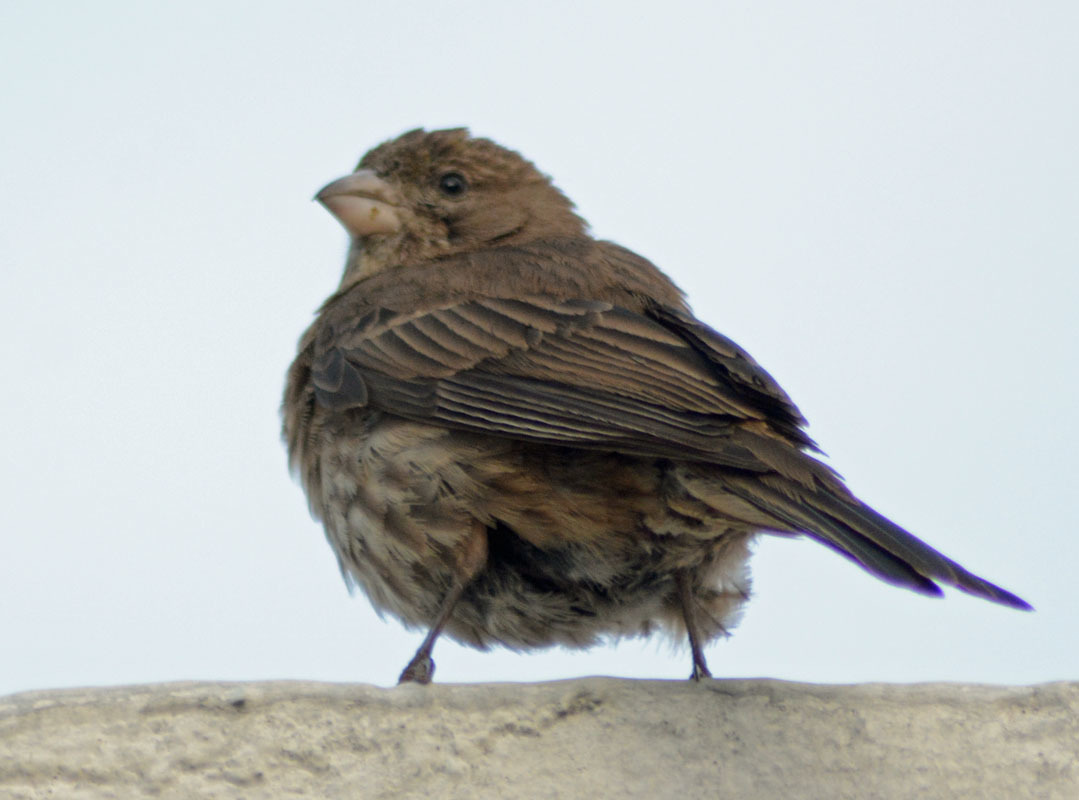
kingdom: Animalia
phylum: Chordata
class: Aves
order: Passeriformes
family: Fringillidae
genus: Haemorhous
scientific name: Haemorhous mexicanus
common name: House finch
